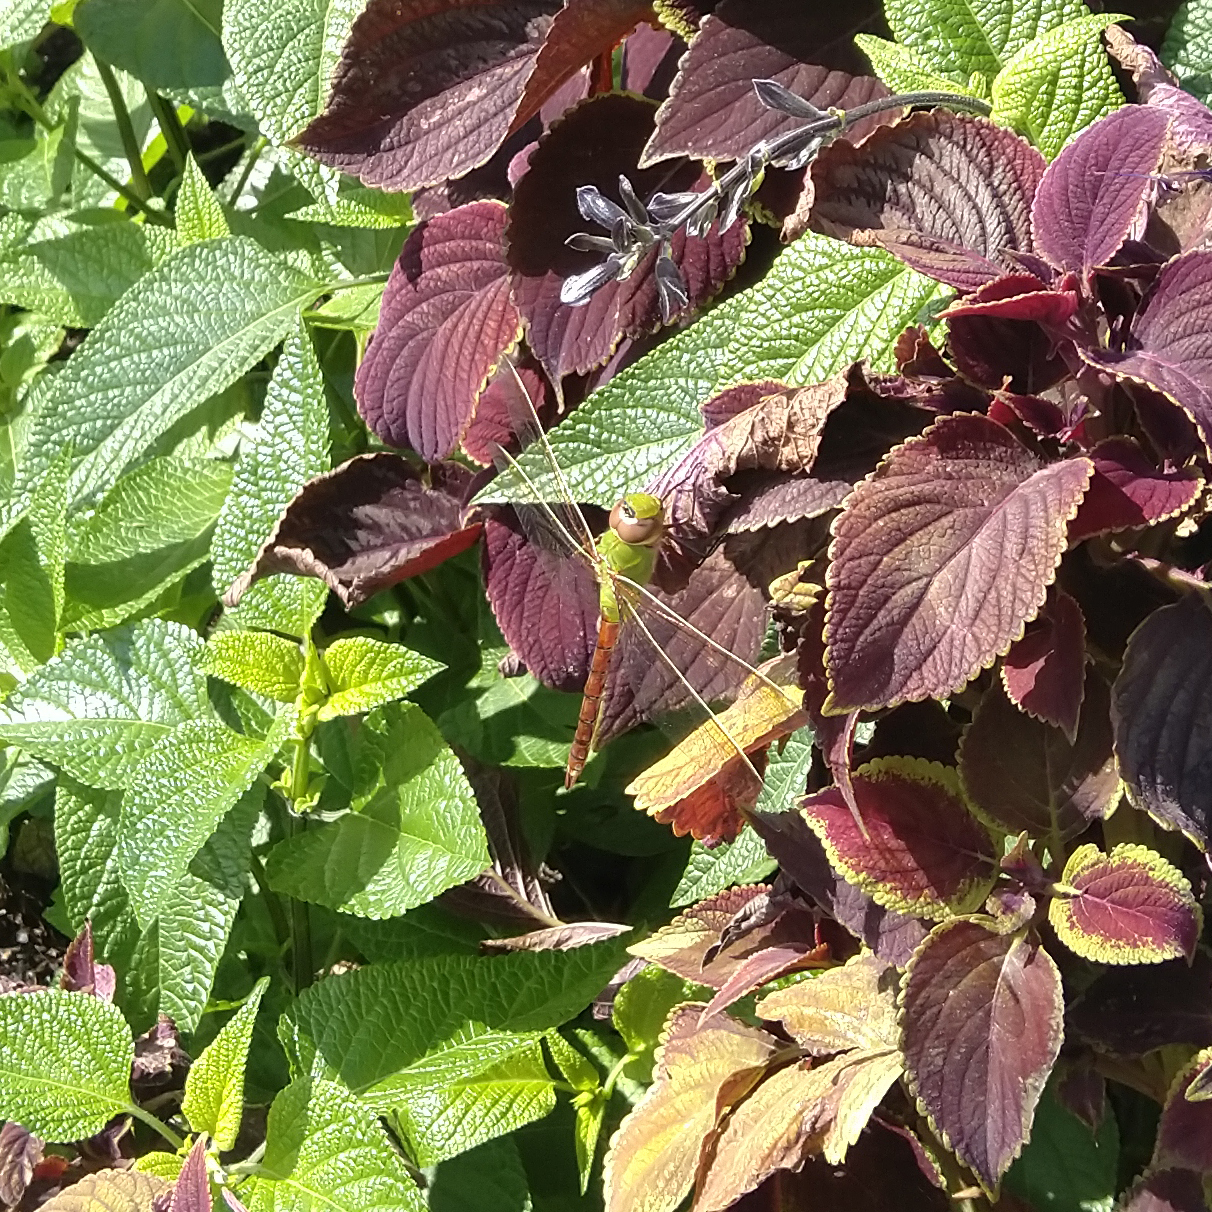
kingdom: Animalia
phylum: Arthropoda
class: Insecta
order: Odonata
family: Aeshnidae
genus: Anax
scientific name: Anax junius
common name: Common green darner
